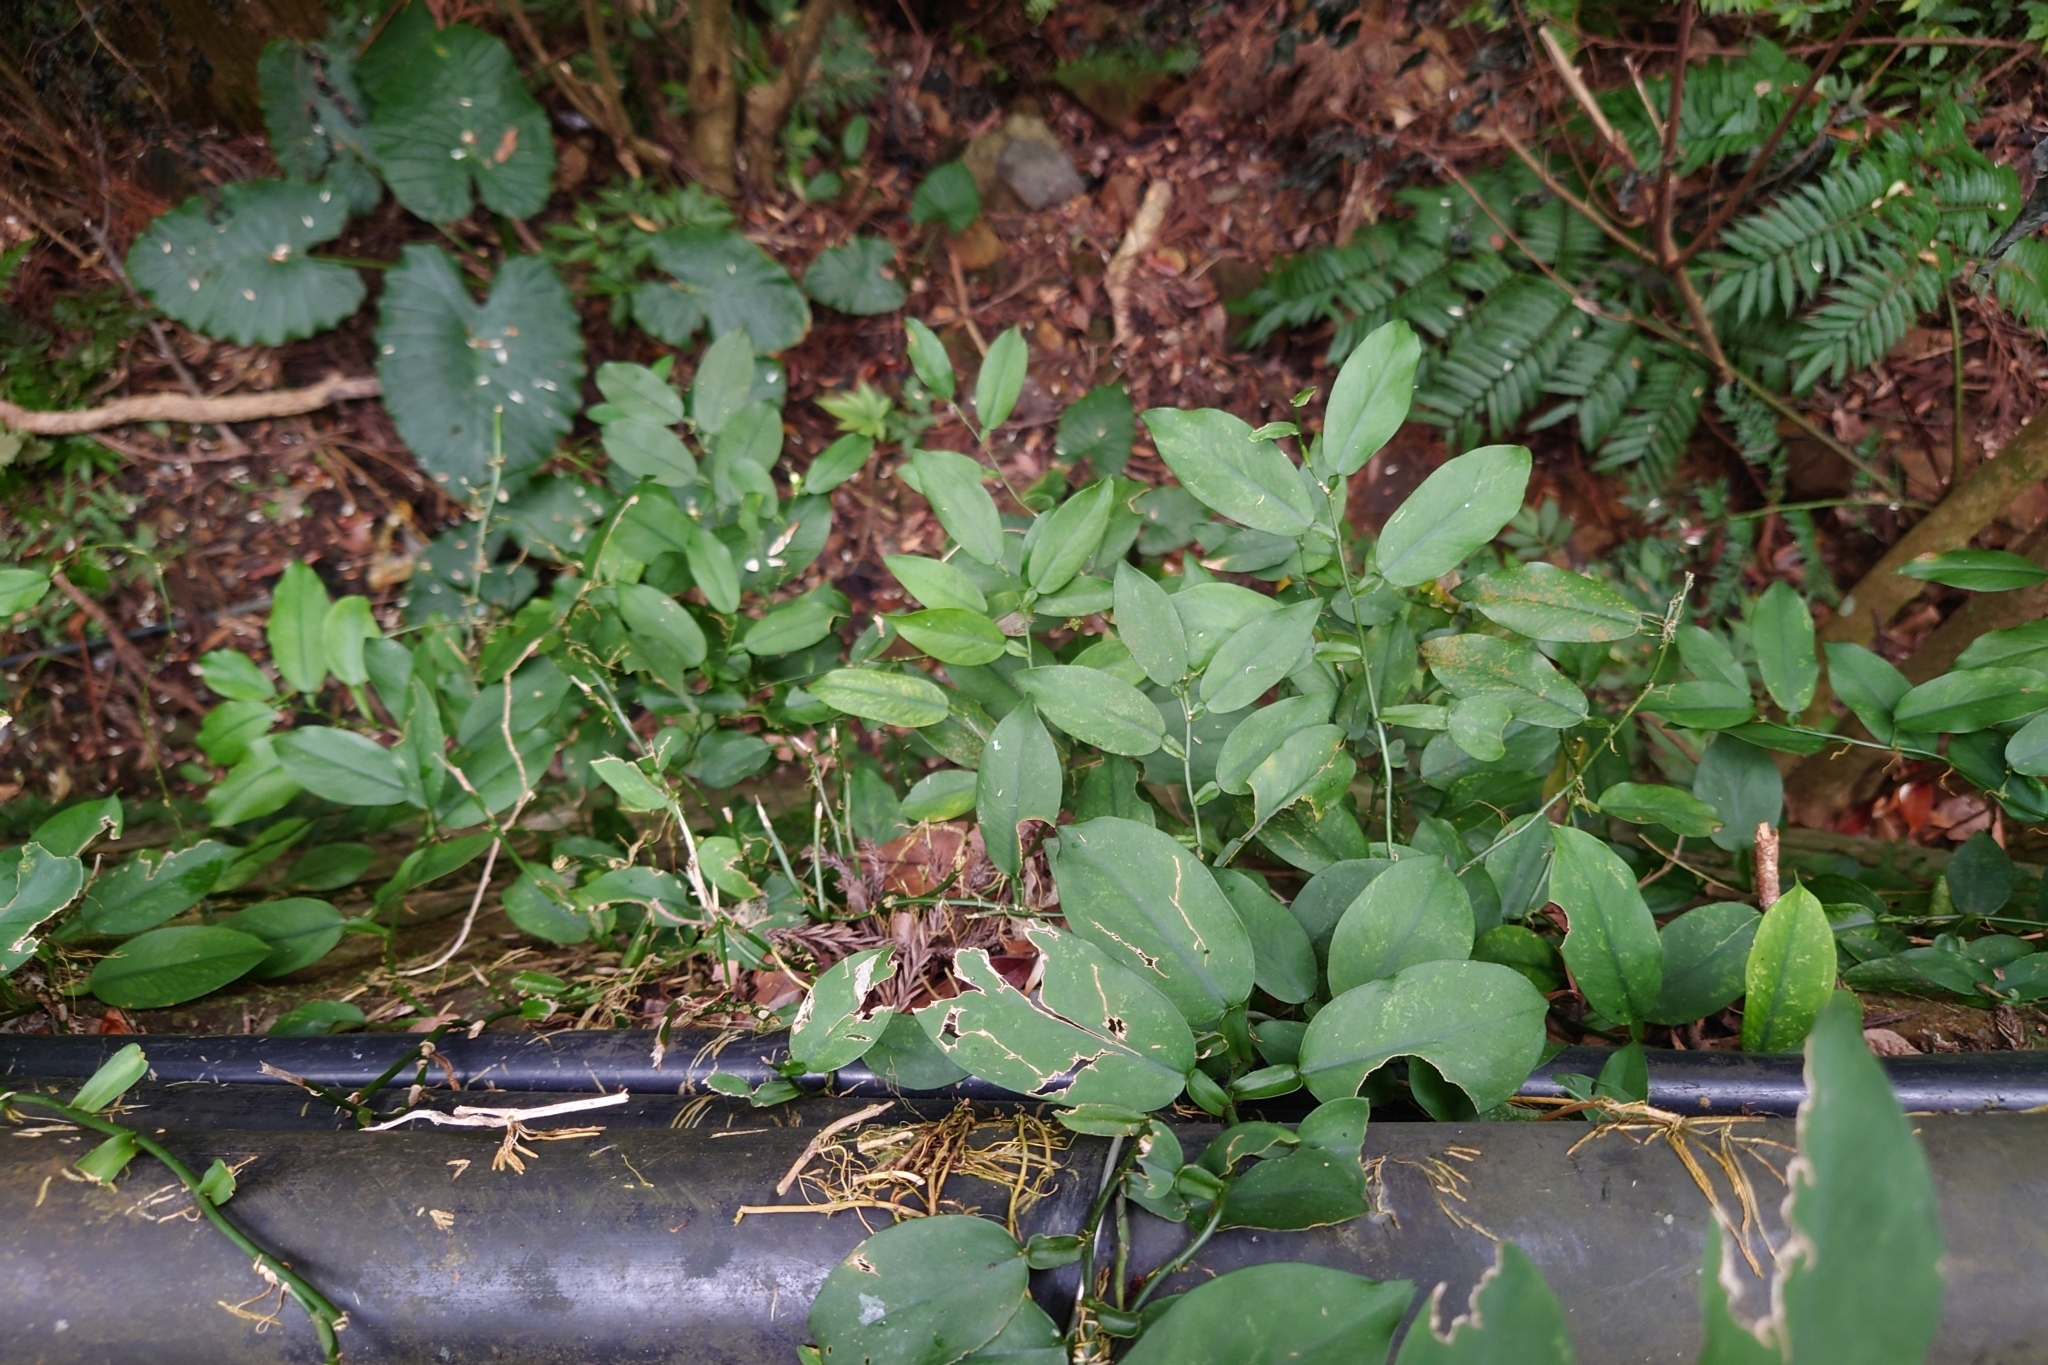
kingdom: Plantae
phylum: Tracheophyta
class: Liliopsida
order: Alismatales
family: Araceae
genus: Pothos
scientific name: Pothos chinensis
